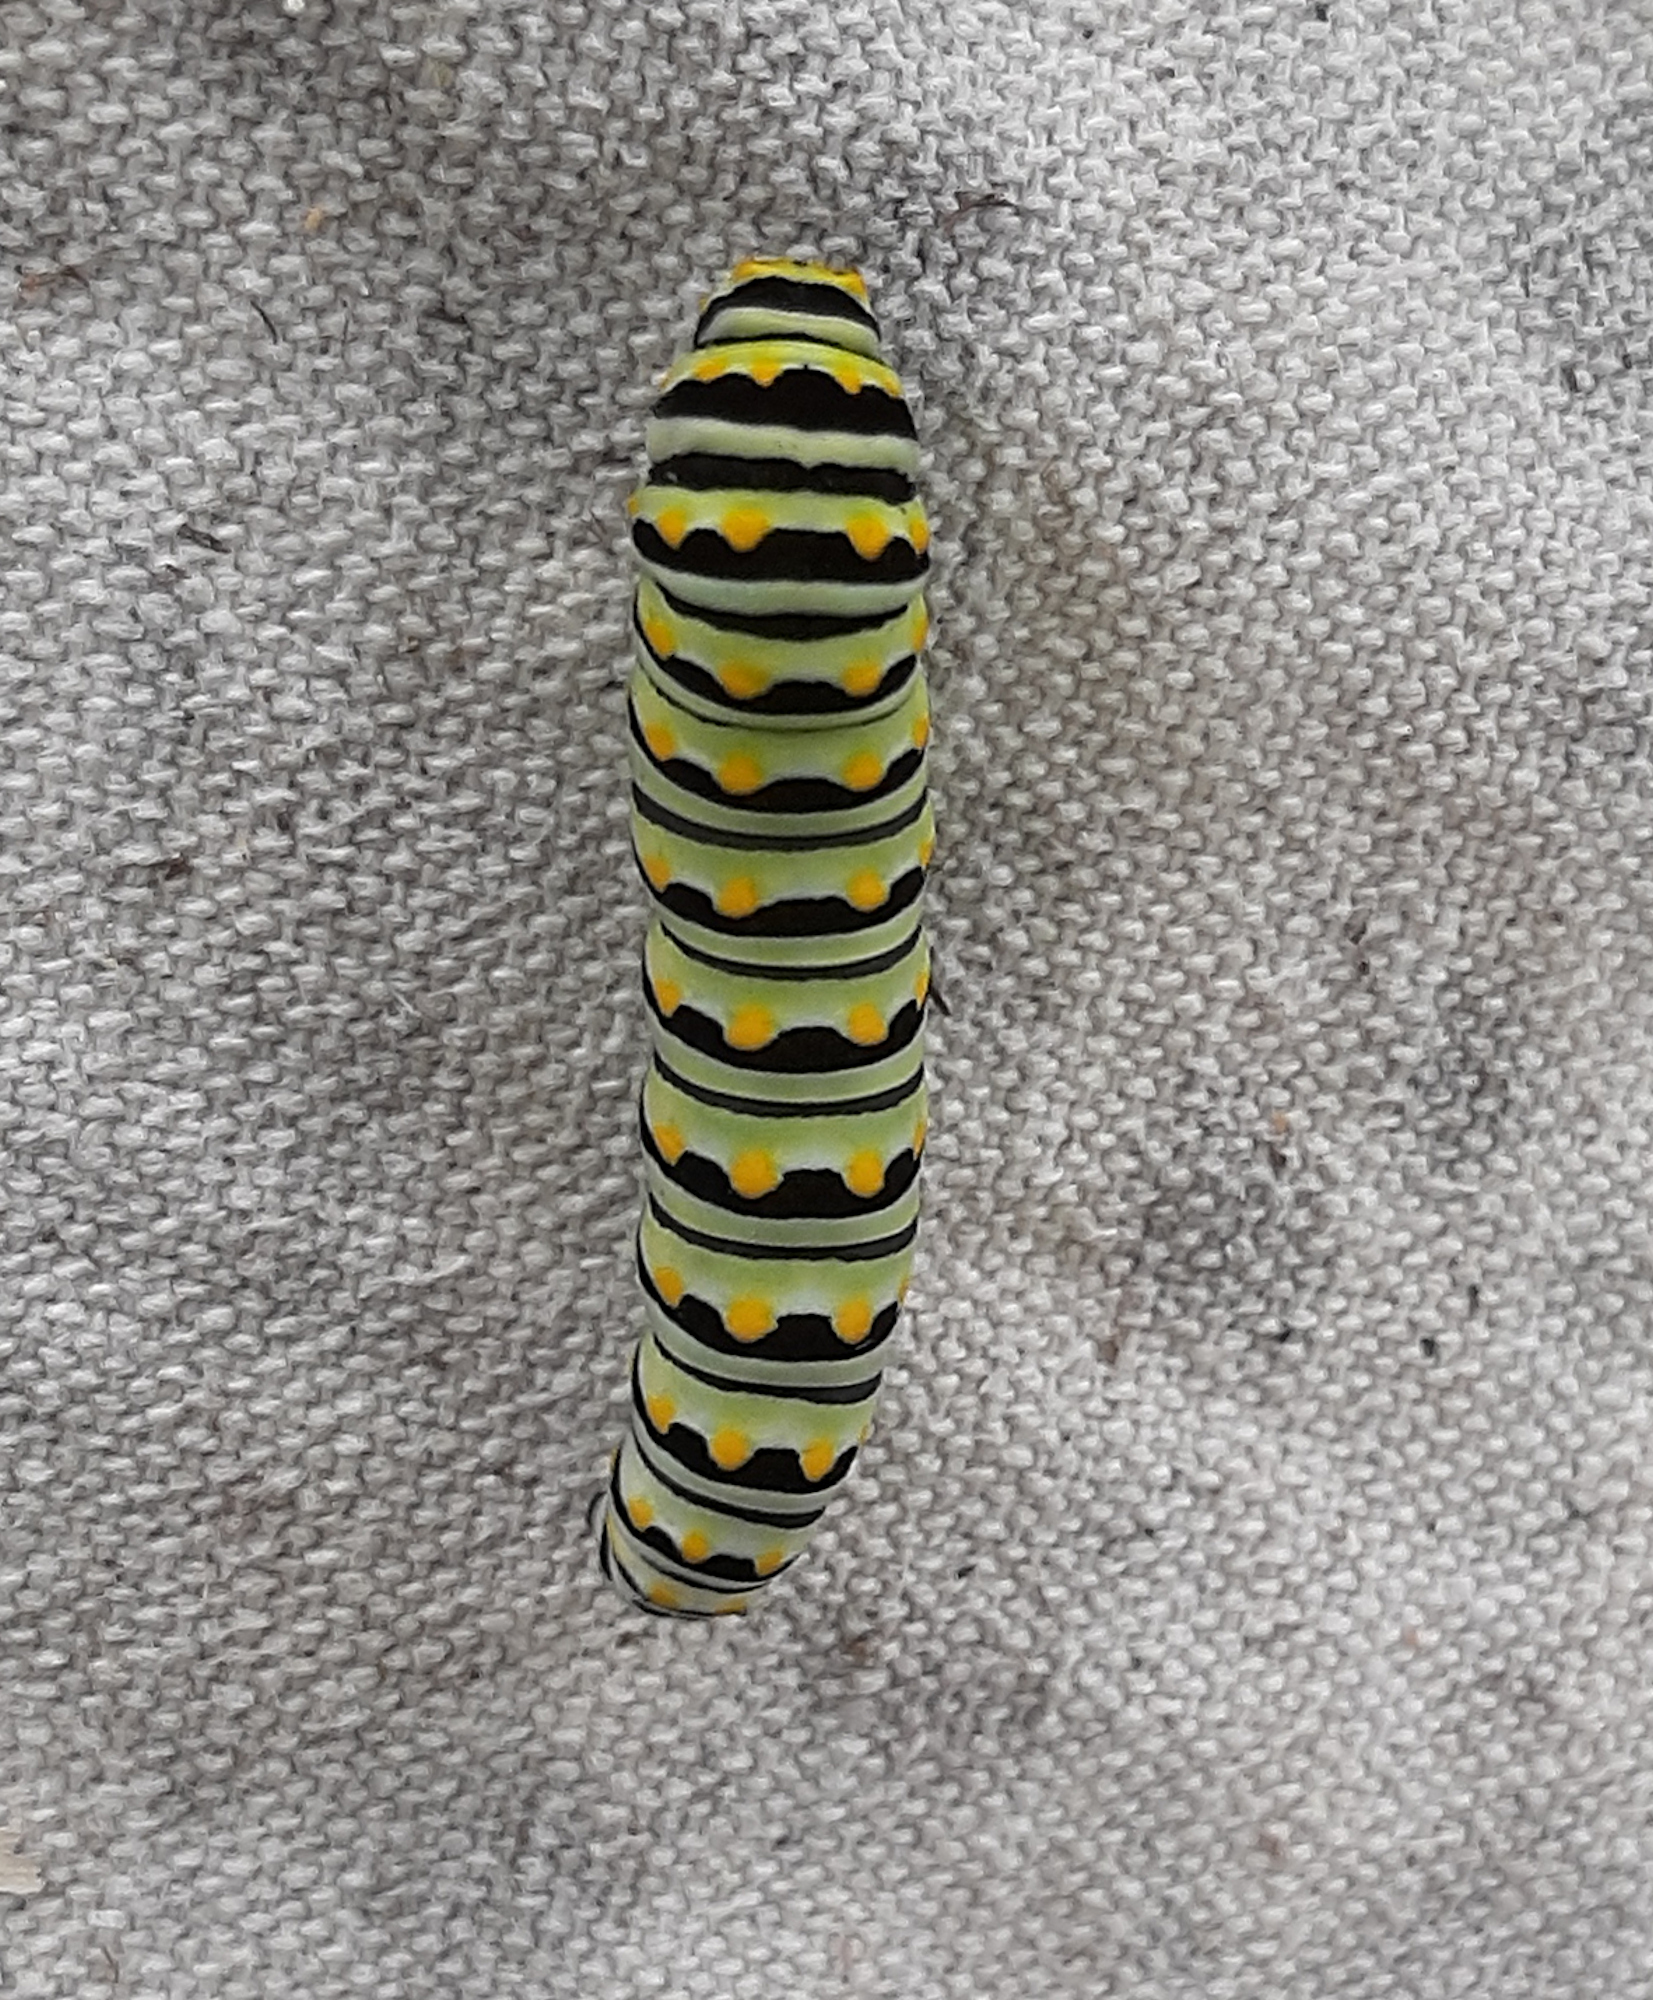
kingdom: Animalia
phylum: Arthropoda
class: Insecta
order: Lepidoptera
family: Papilionidae
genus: Papilio
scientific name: Papilio polyxenes
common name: Black swallowtail
